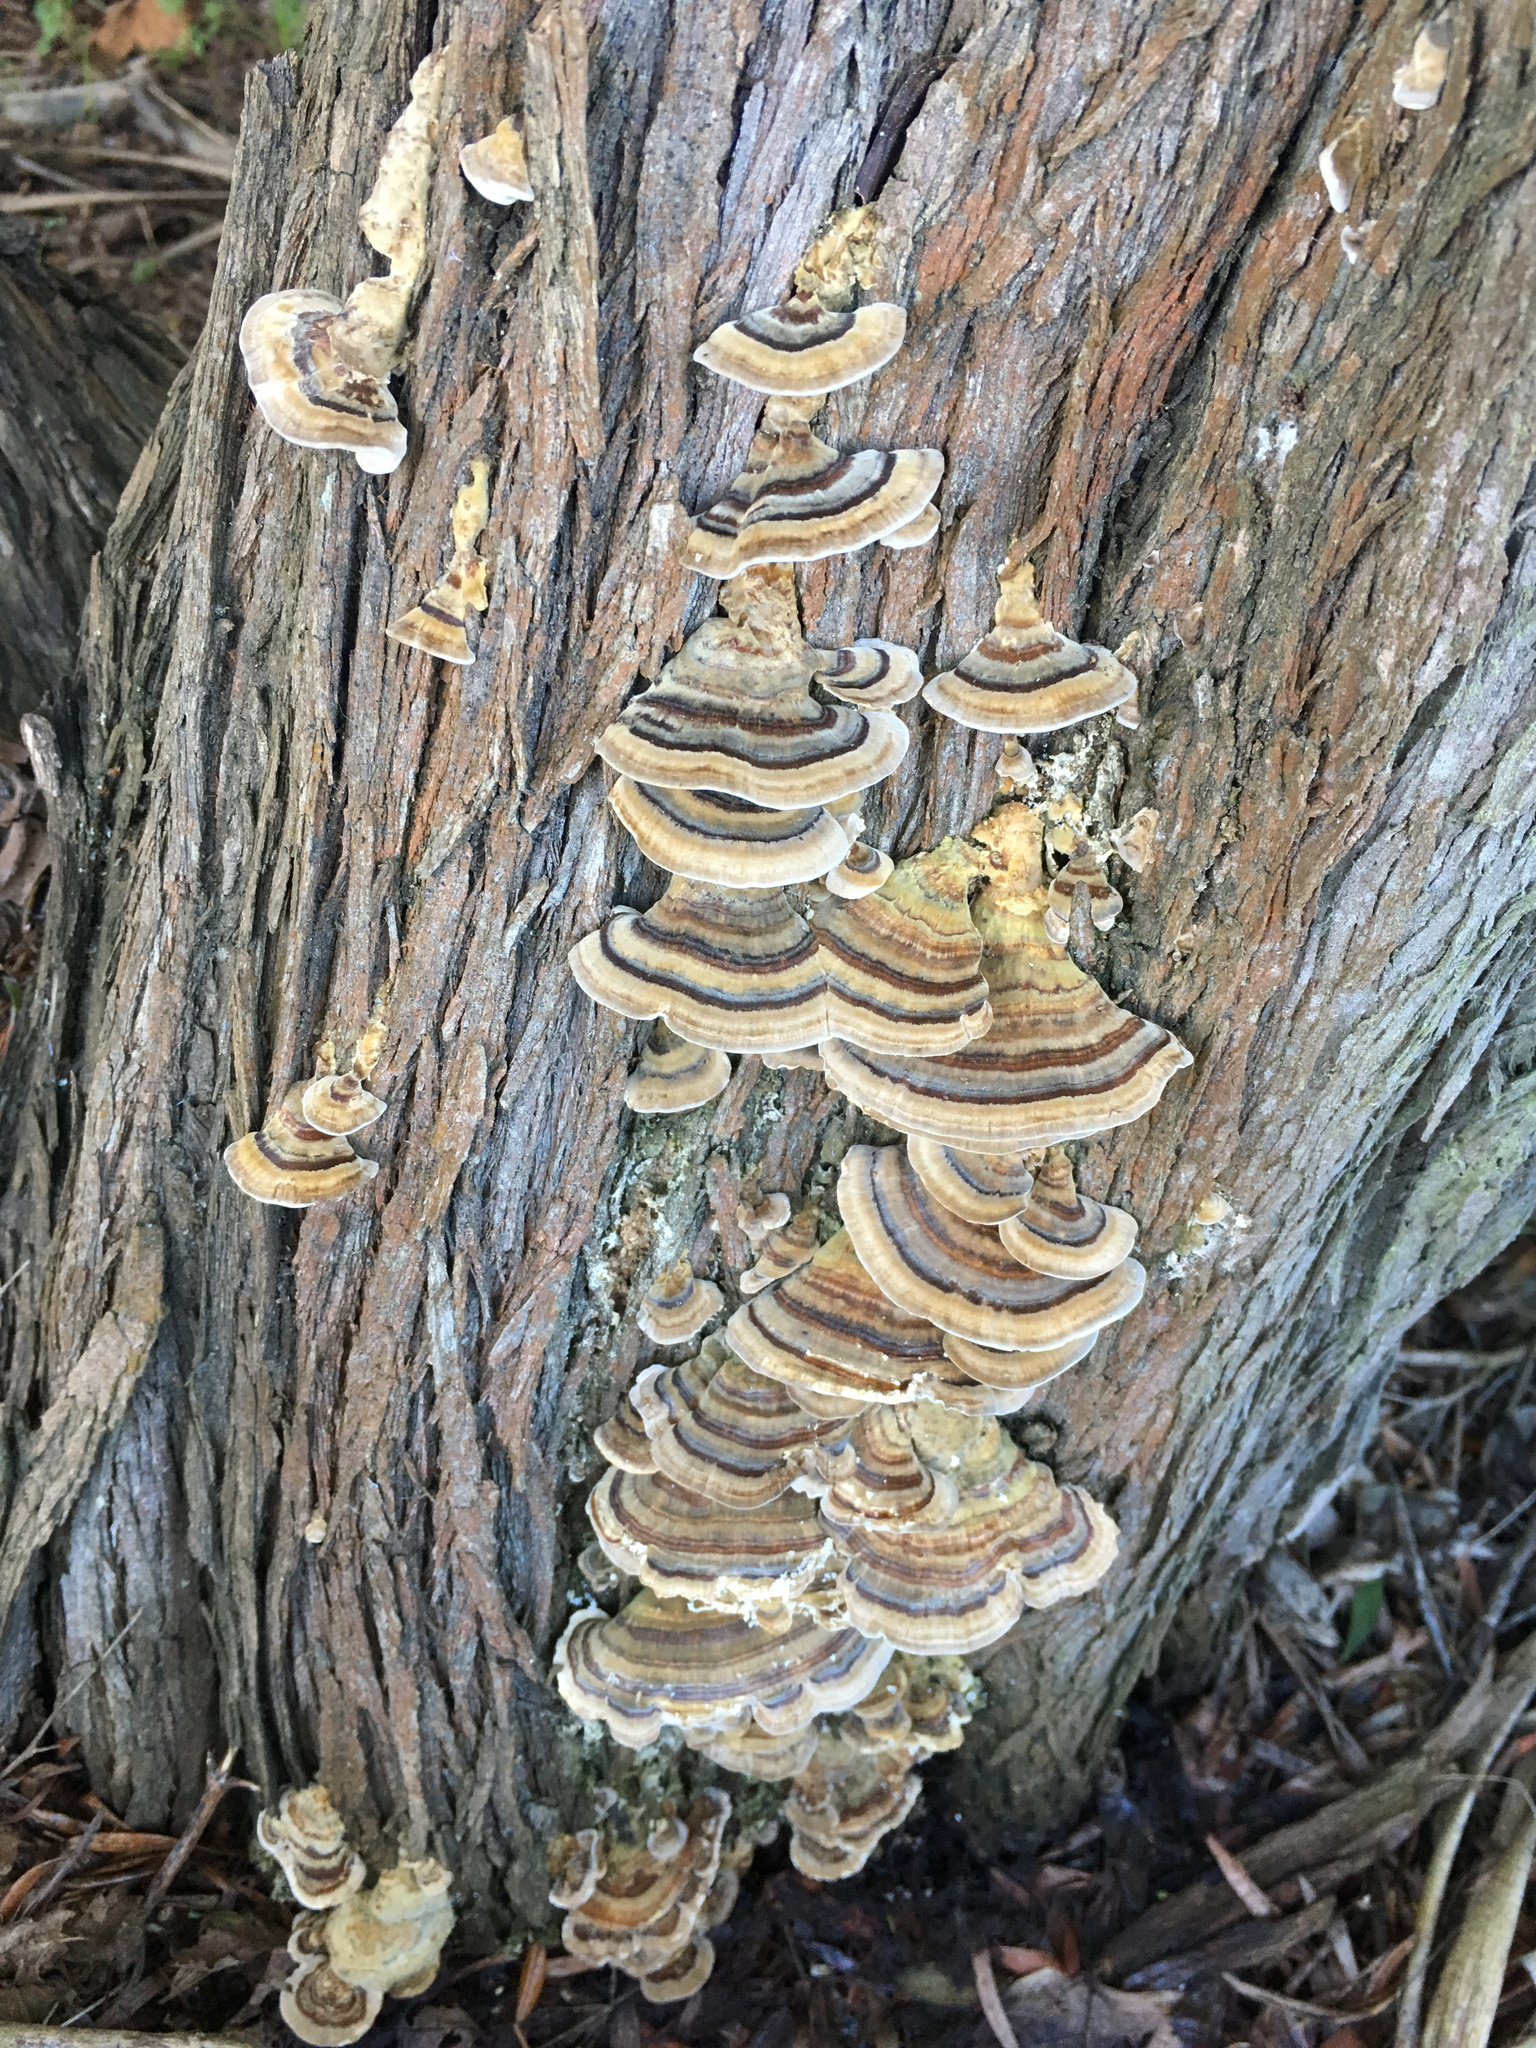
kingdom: Fungi
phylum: Basidiomycota
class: Agaricomycetes
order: Polyporales
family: Polyporaceae
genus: Trametes
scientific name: Trametes versicolor
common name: Turkeytail
